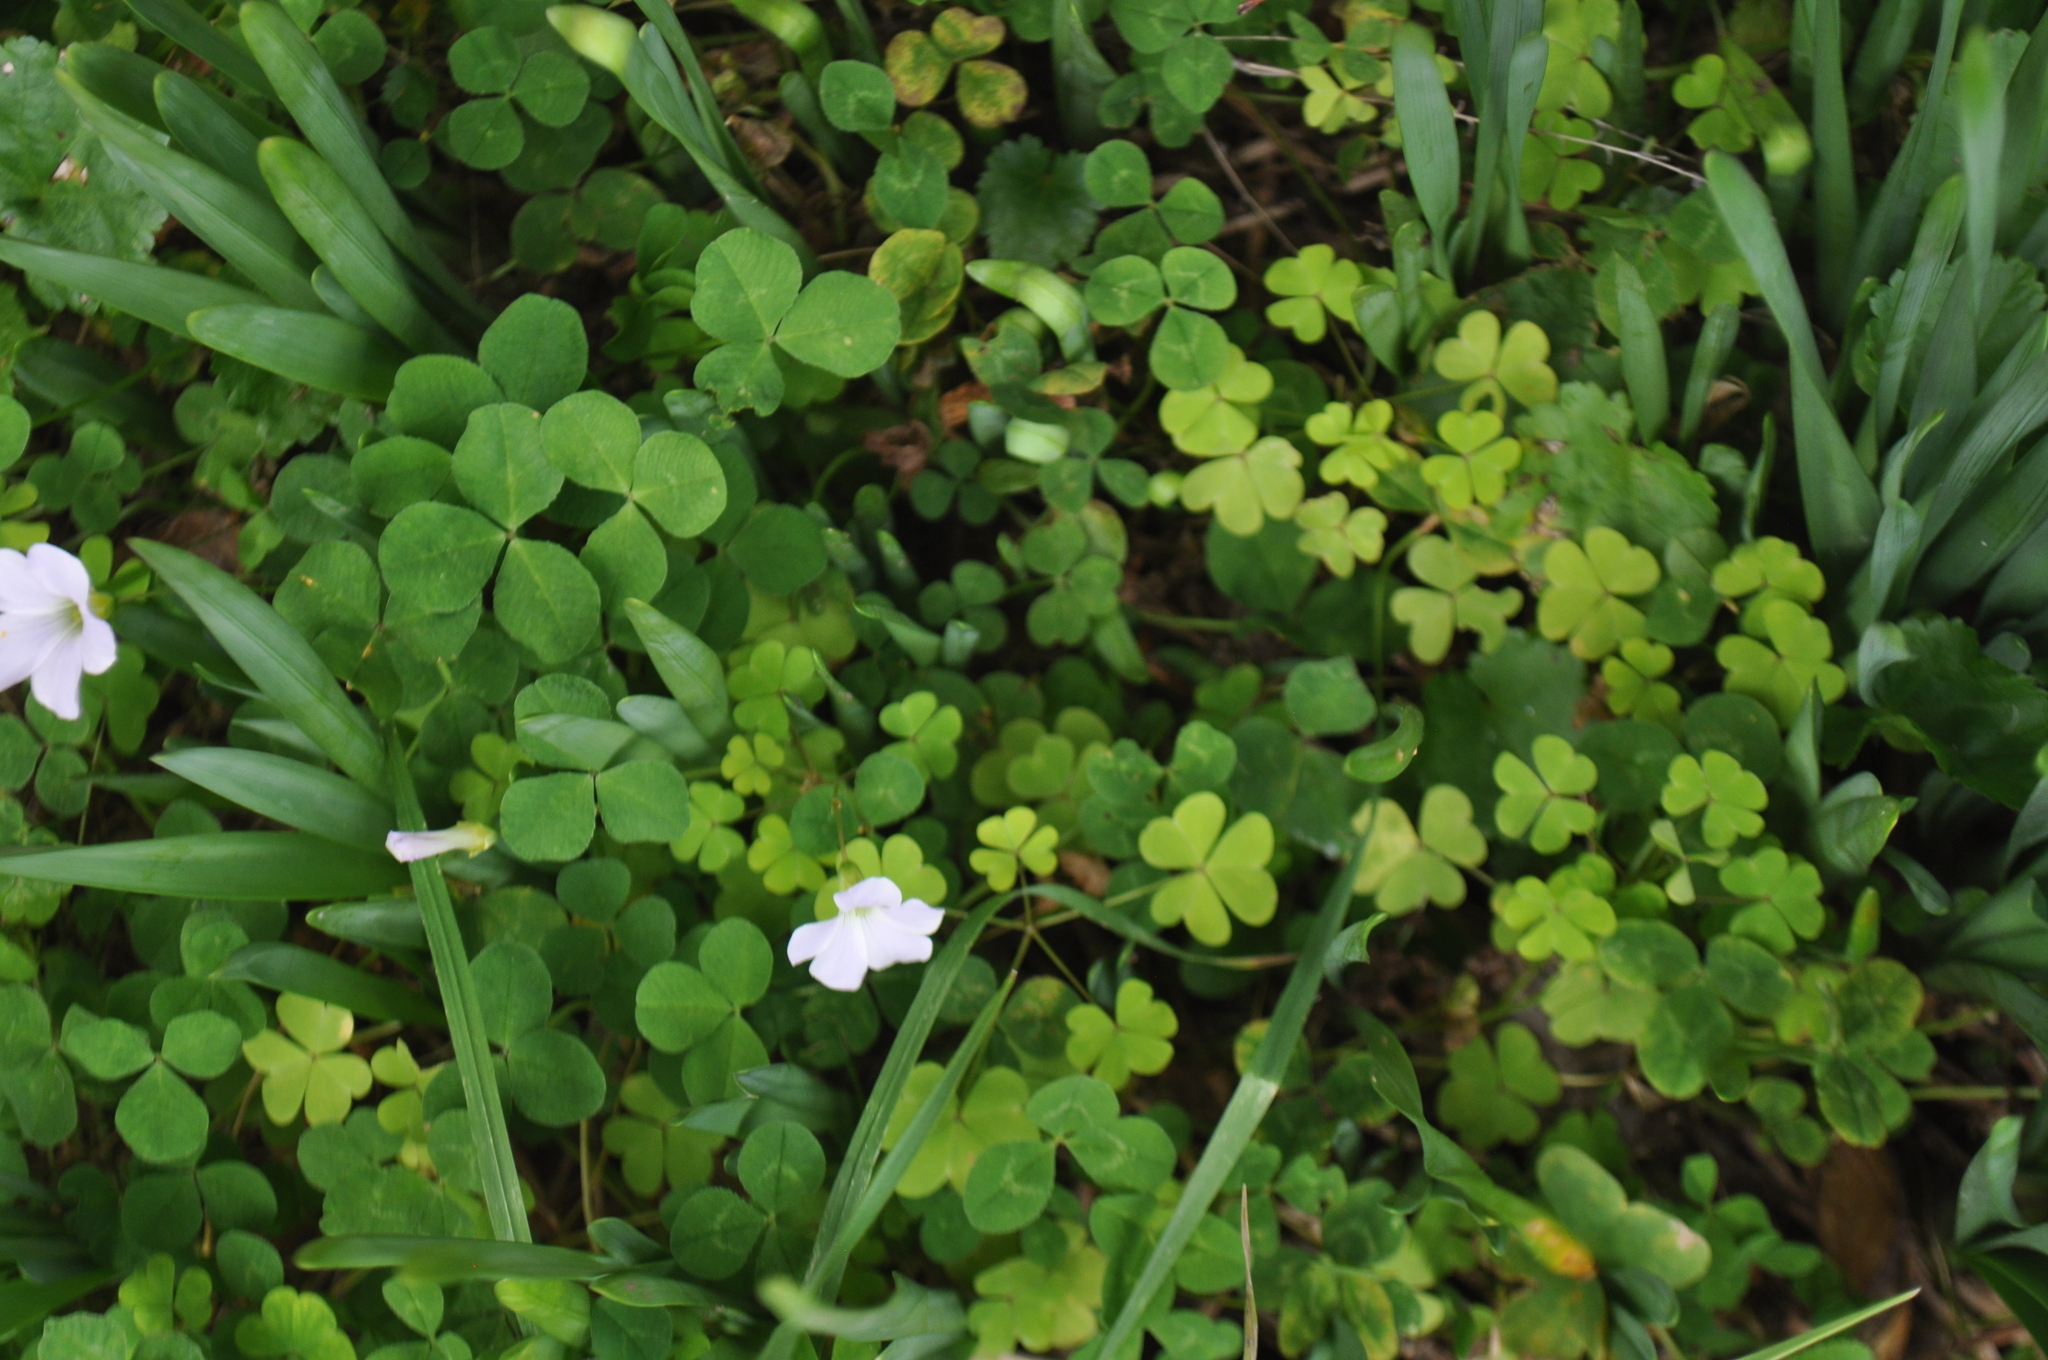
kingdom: Plantae
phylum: Tracheophyta
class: Magnoliopsida
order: Oxalidales
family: Oxalidaceae
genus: Oxalis
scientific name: Oxalis incarnata
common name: Pale pink-sorrel
